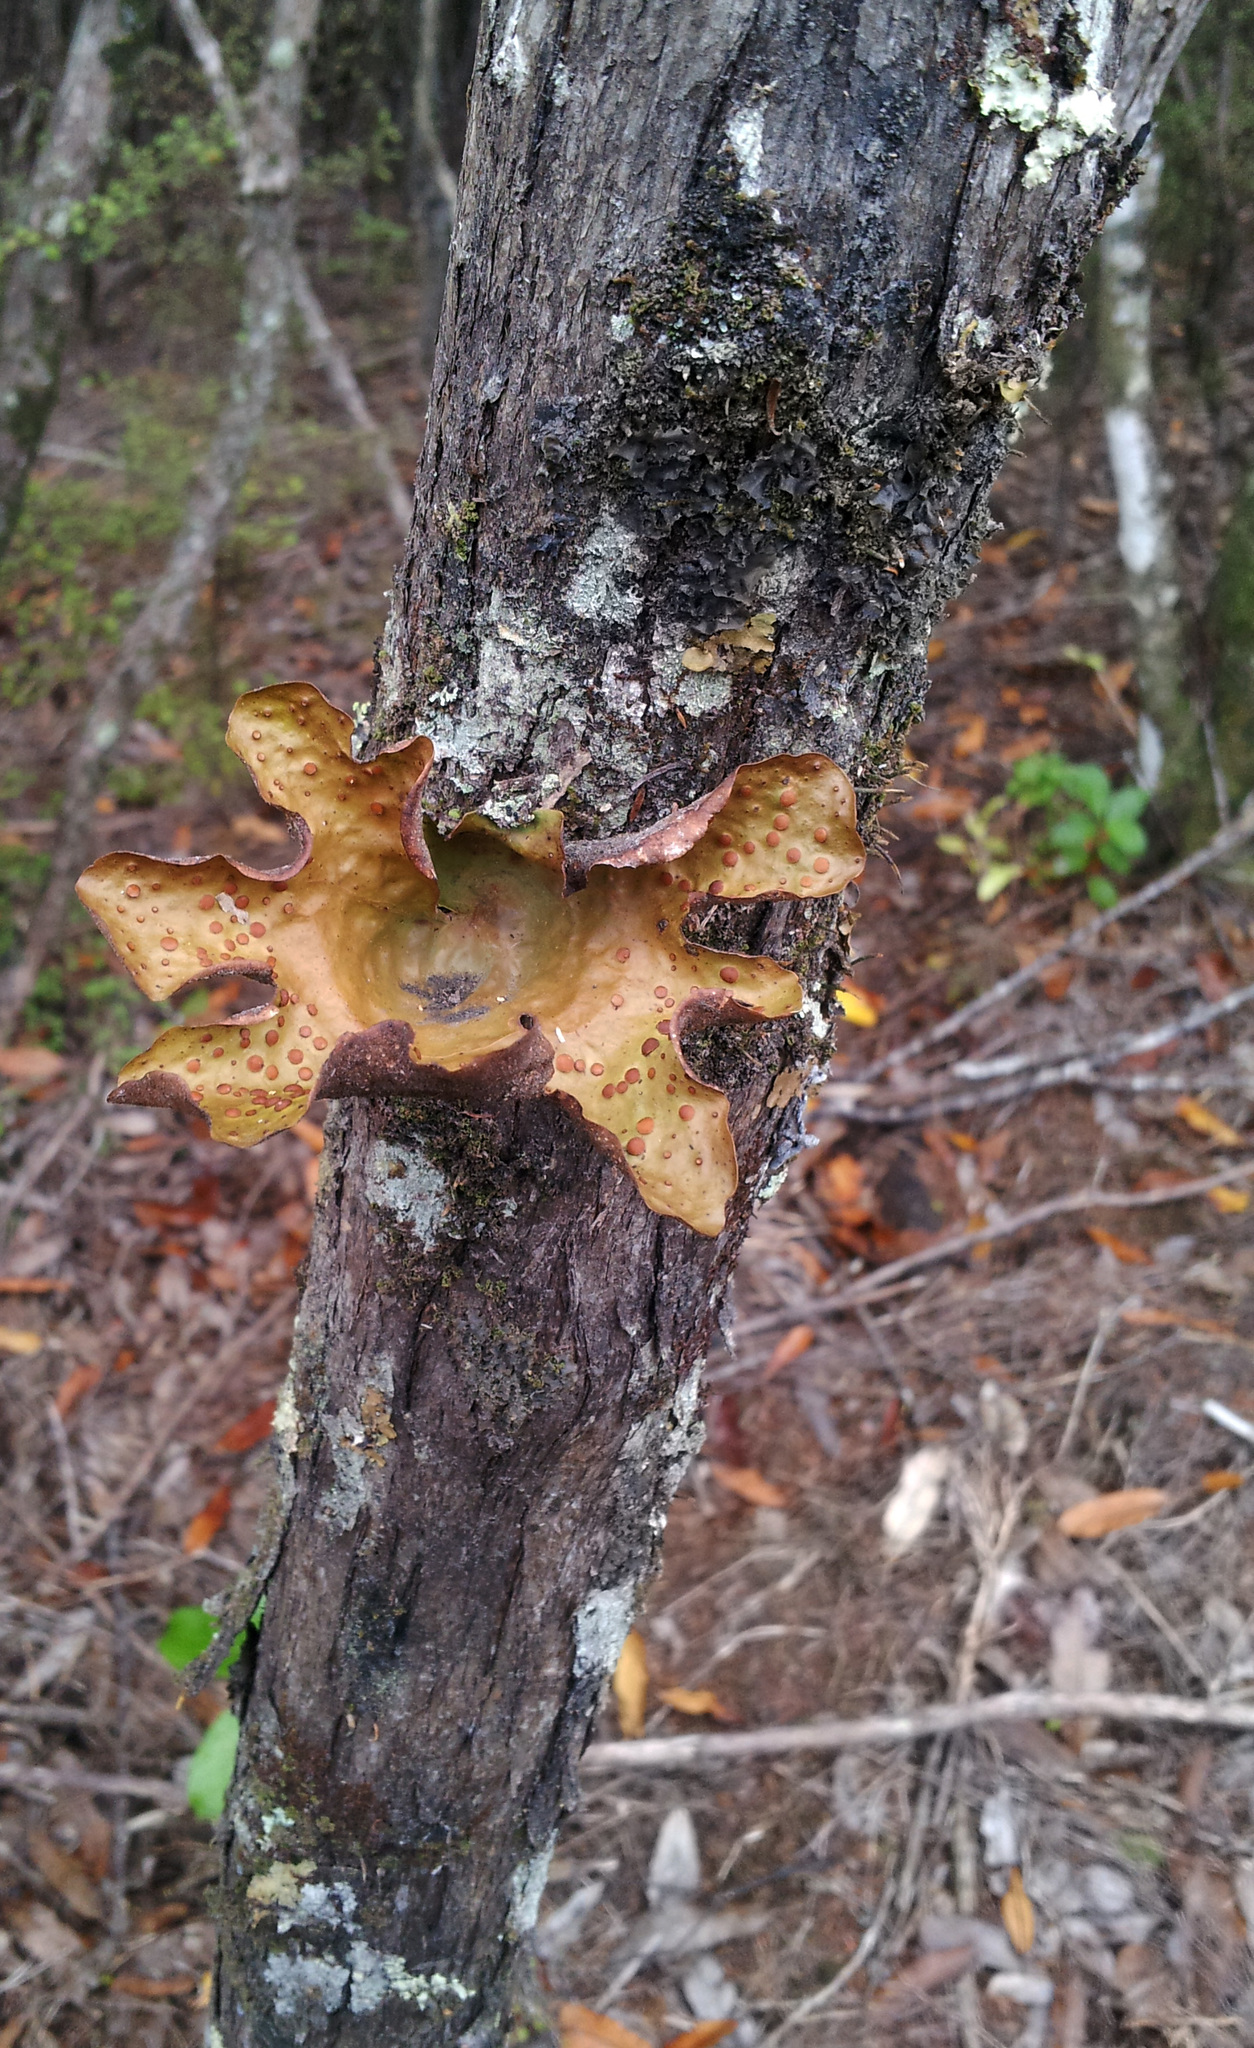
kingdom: Fungi
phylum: Ascomycota
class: Lecanoromycetes
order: Peltigerales
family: Lobariaceae
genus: Sticta
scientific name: Sticta latifrons
